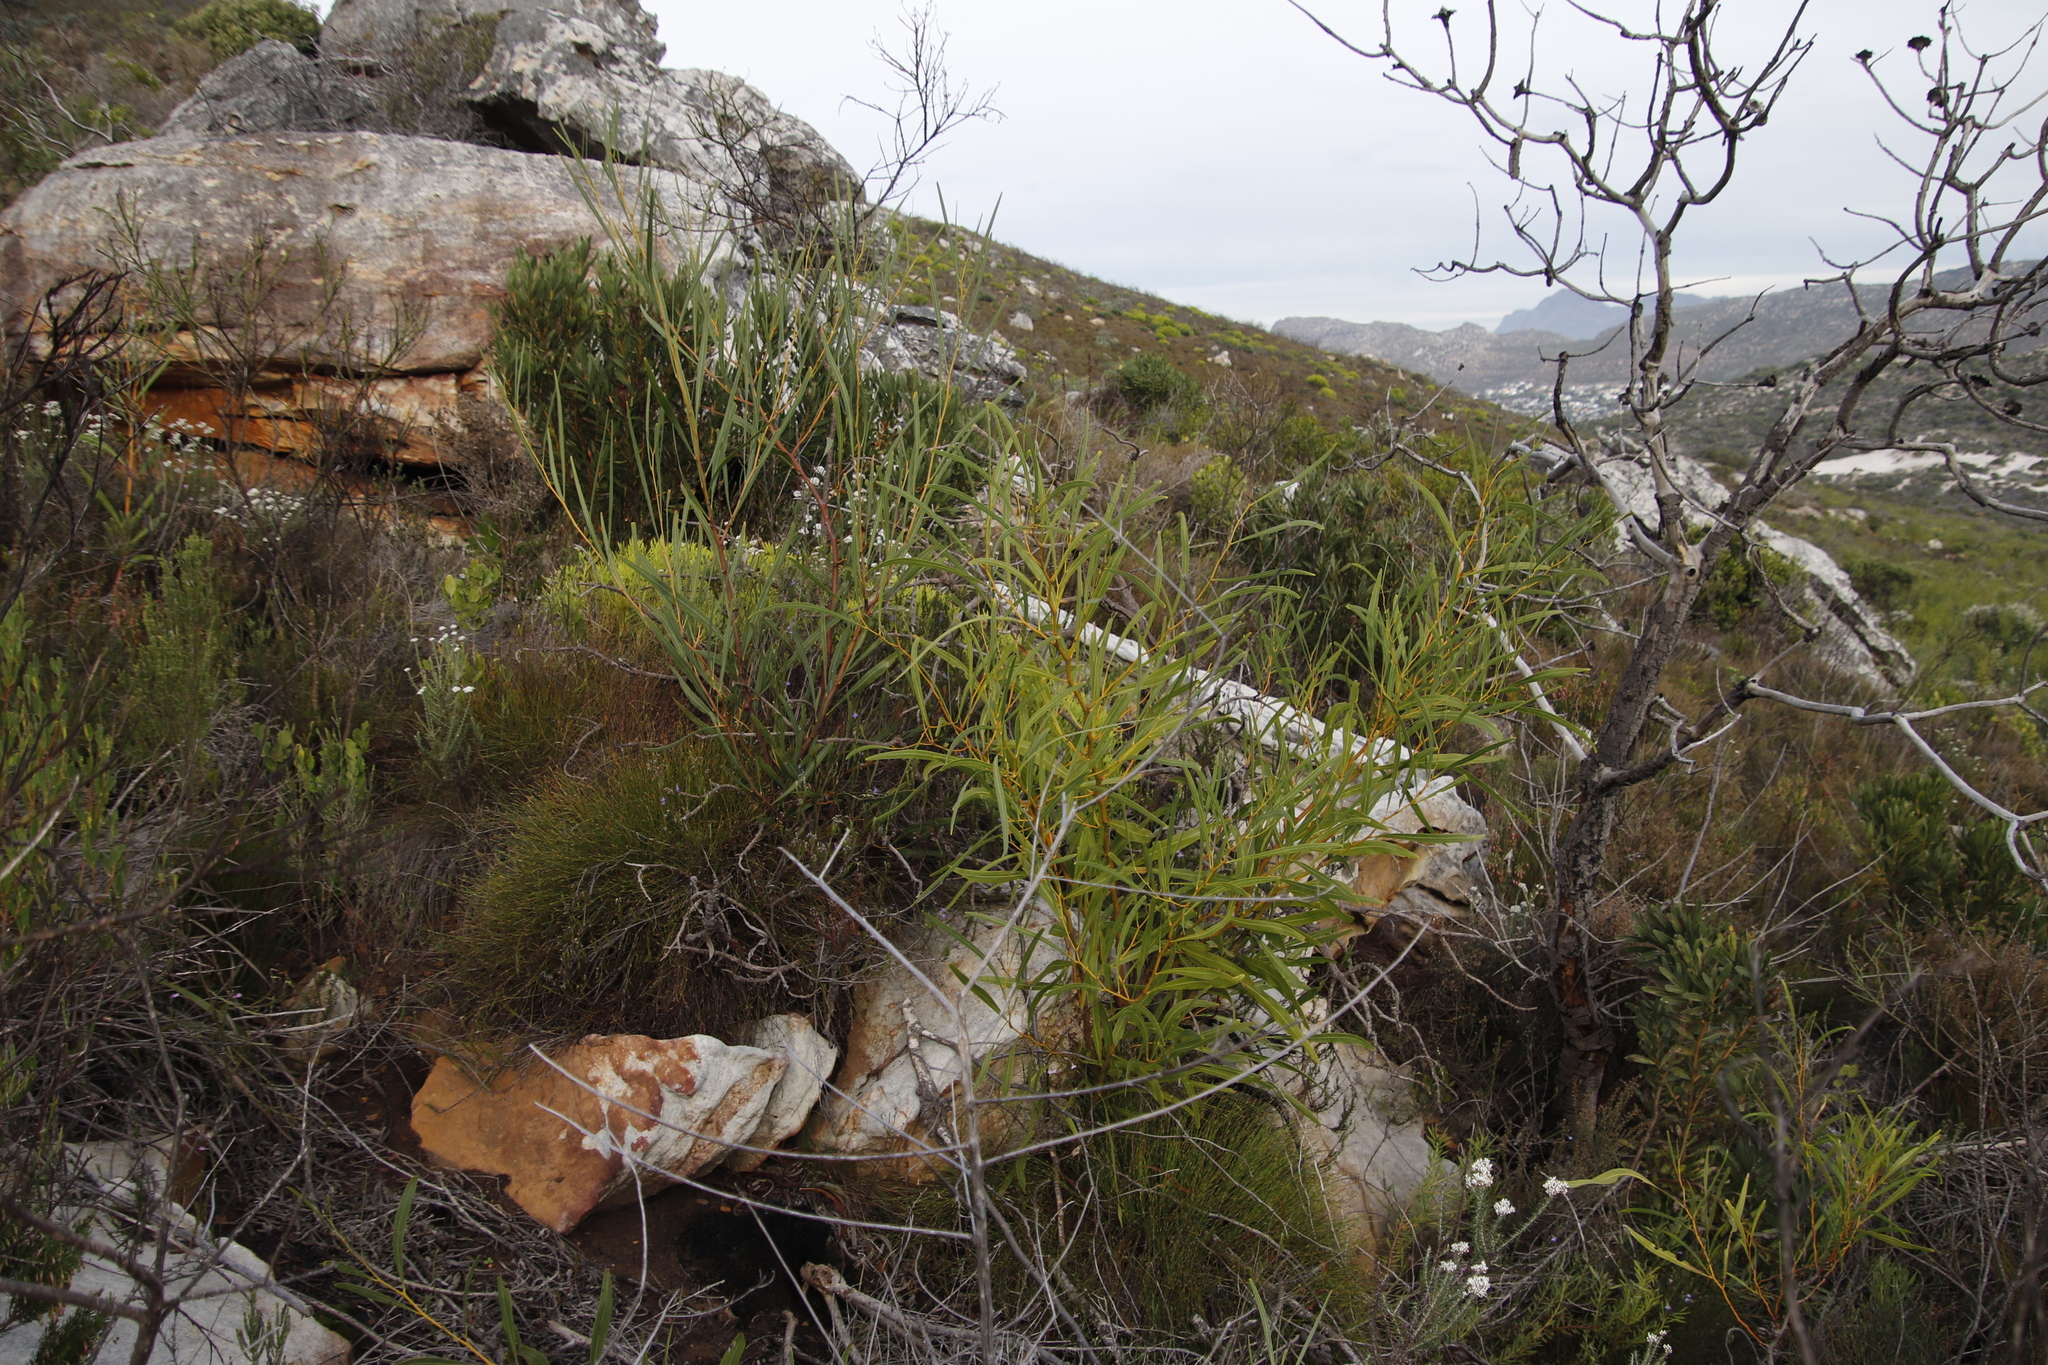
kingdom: Plantae
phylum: Tracheophyta
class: Magnoliopsida
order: Fabales
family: Fabaceae
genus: Acacia
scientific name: Acacia saligna
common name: Orange wattle
